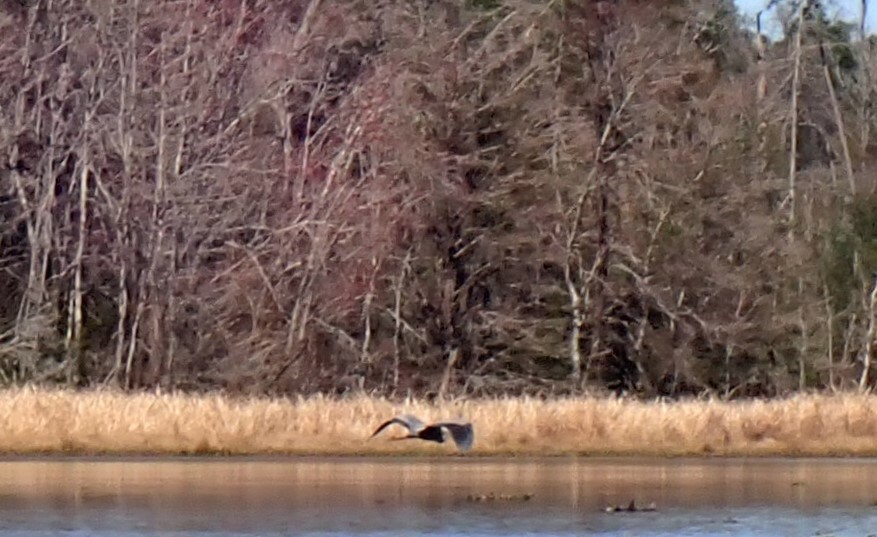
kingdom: Animalia
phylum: Chordata
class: Aves
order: Pelecaniformes
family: Ardeidae
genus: Ardea
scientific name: Ardea herodias
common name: Great blue heron
